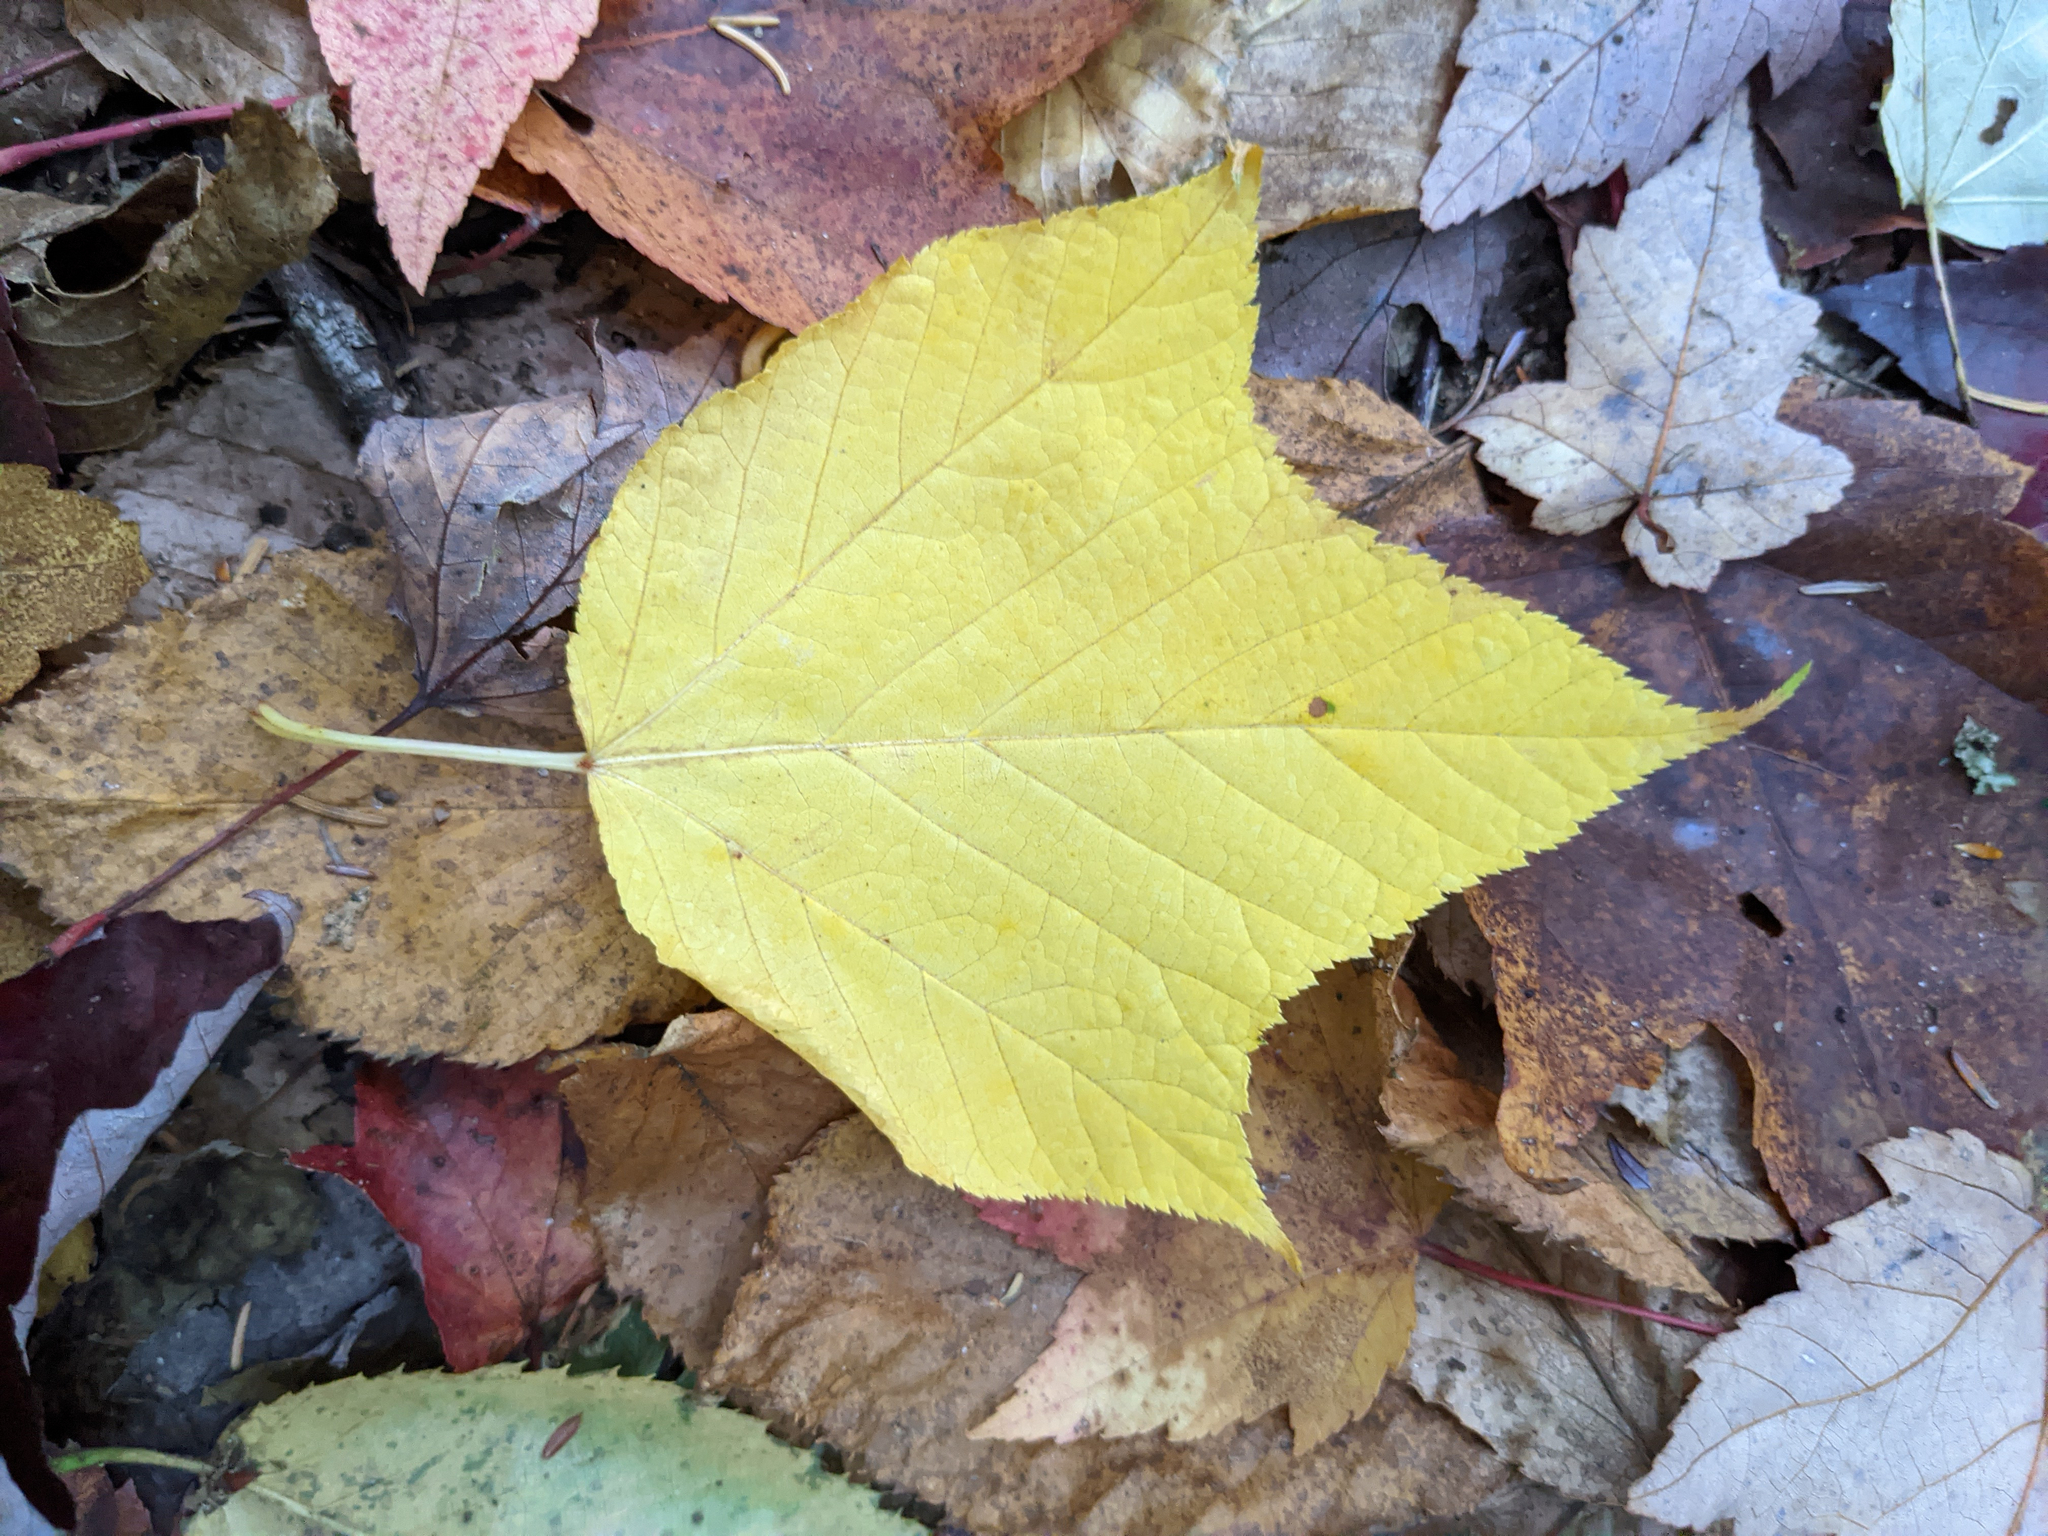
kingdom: Plantae
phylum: Tracheophyta
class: Magnoliopsida
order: Sapindales
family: Sapindaceae
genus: Acer
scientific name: Acer pensylvanicum
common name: Moosewood
